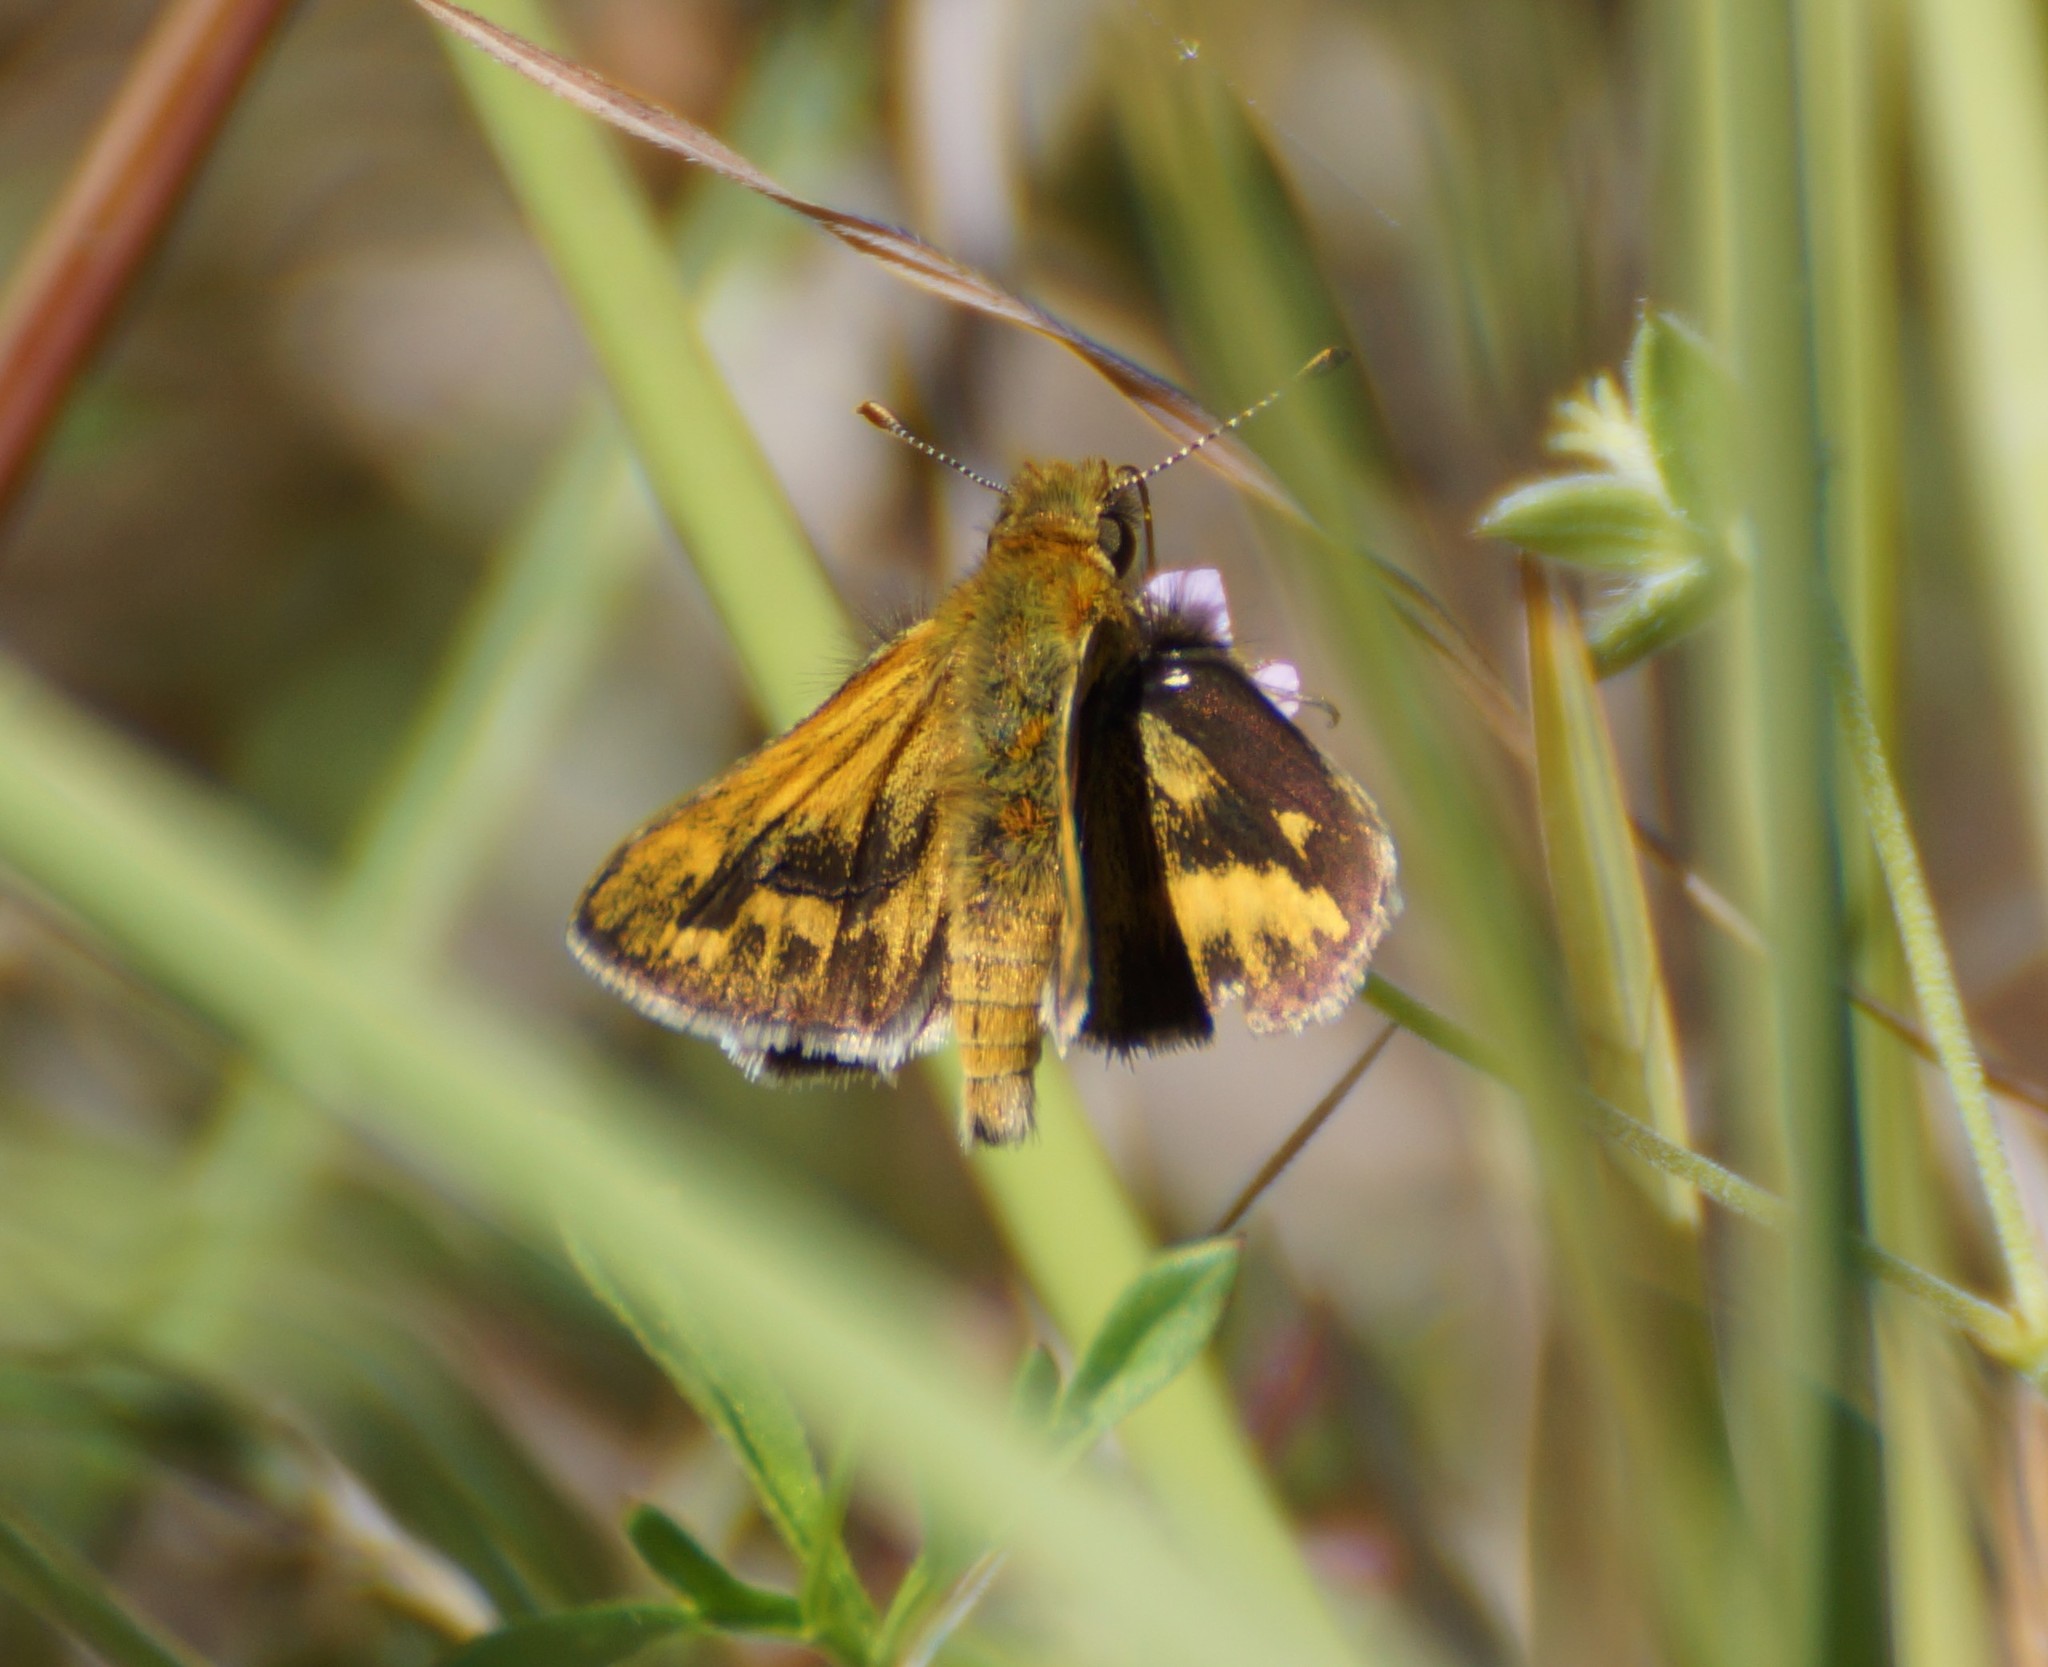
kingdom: Animalia
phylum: Arthropoda
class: Insecta
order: Lepidoptera
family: Hesperiidae
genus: Ocybadistes
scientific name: Ocybadistes walkeri
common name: Yellow-banded dart
